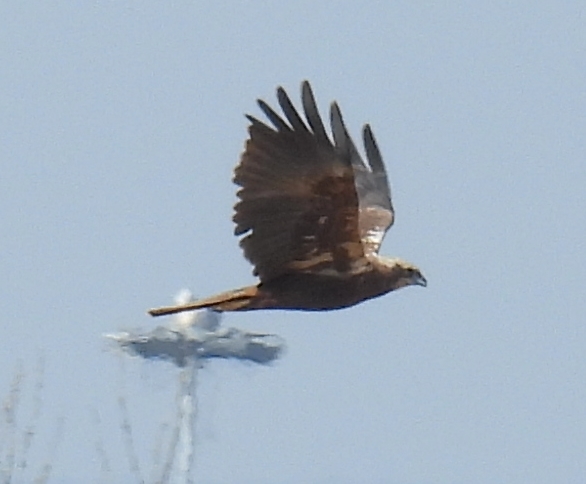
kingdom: Animalia
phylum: Chordata
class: Aves
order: Accipitriformes
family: Accipitridae
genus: Circus
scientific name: Circus aeruginosus
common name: Western marsh harrier
